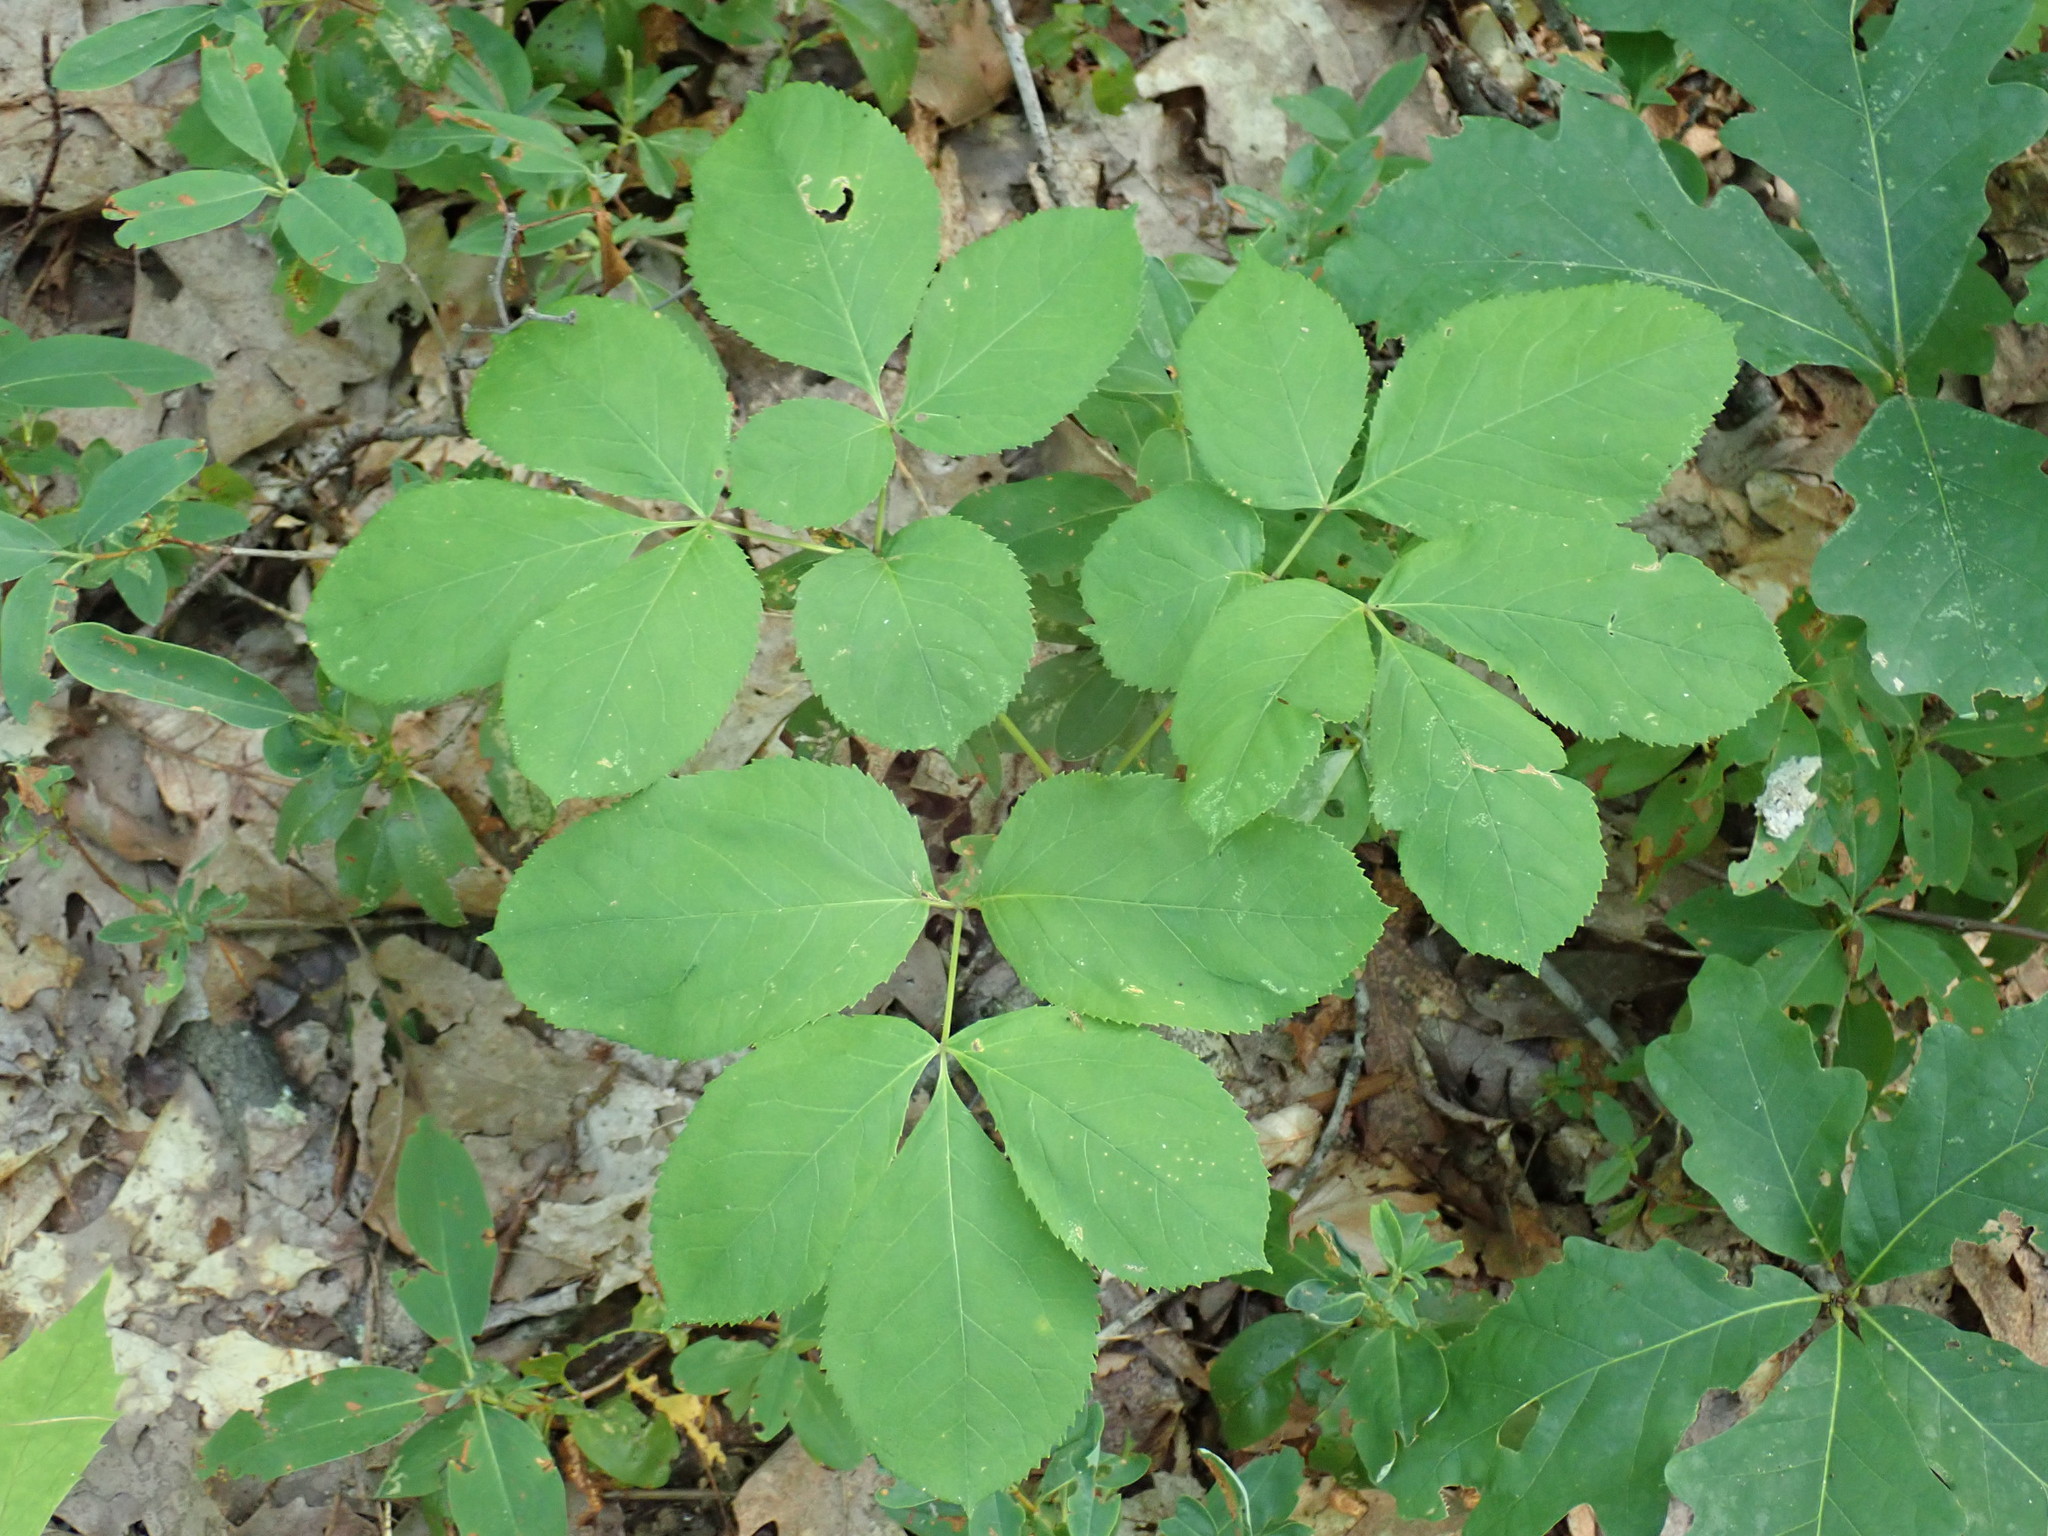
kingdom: Plantae
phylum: Tracheophyta
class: Magnoliopsida
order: Apiales
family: Araliaceae
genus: Aralia
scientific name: Aralia nudicaulis
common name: Wild sarsaparilla
